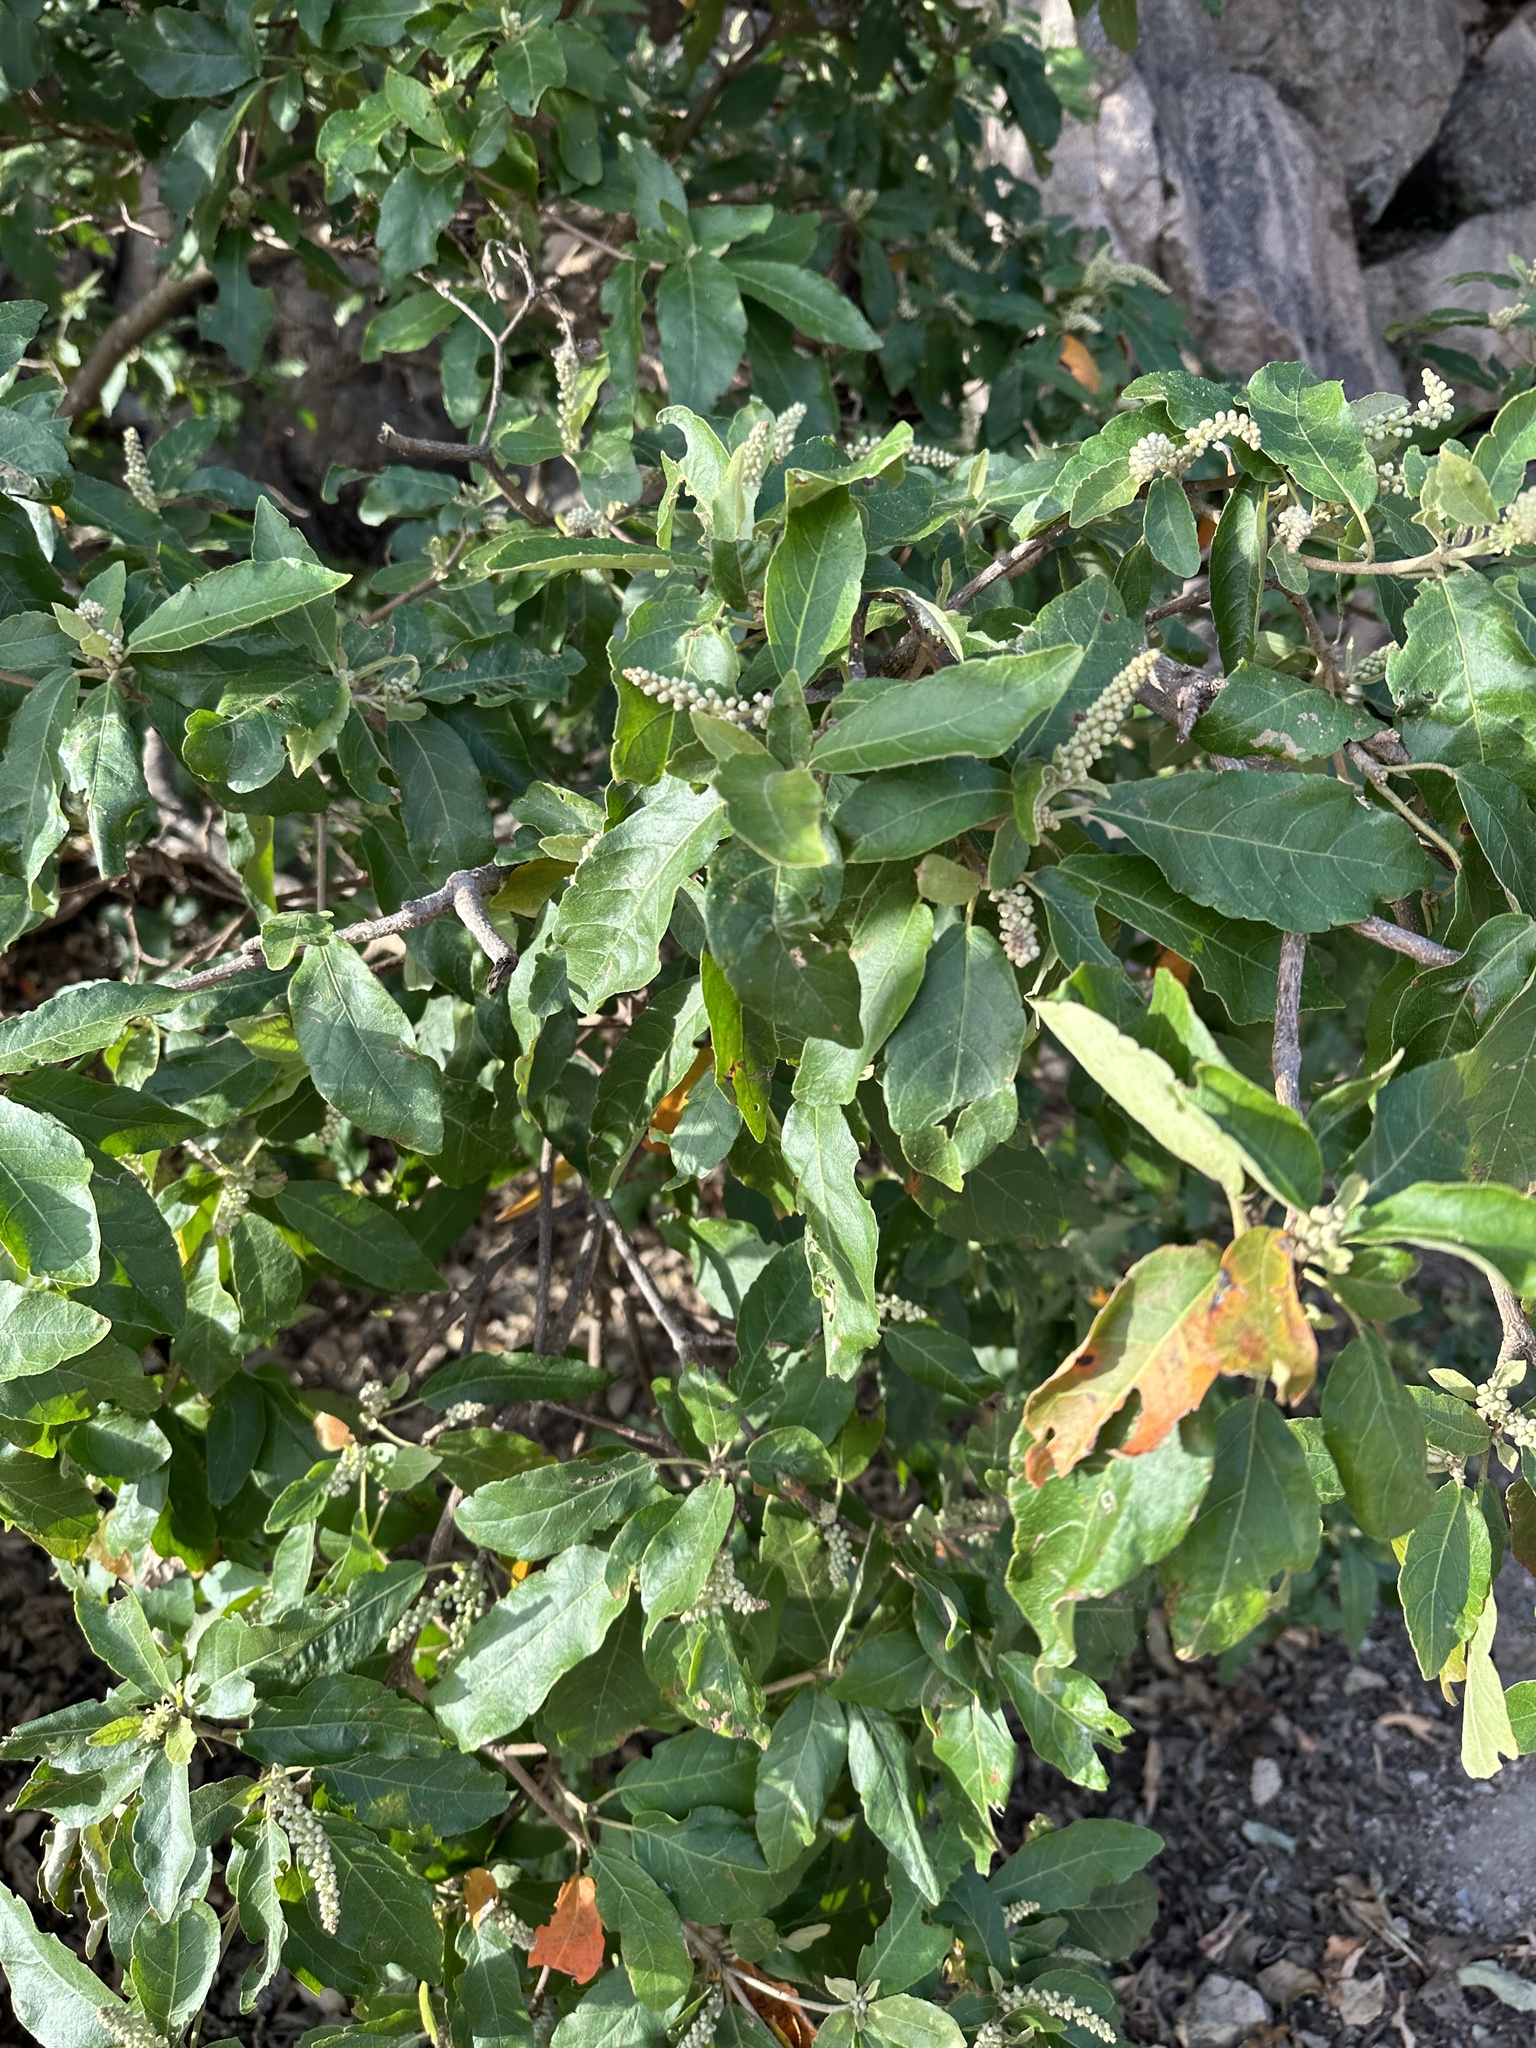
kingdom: Plantae
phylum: Tracheophyta
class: Magnoliopsida
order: Malpighiales
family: Euphorbiaceae
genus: Croton
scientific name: Croton magneticus
